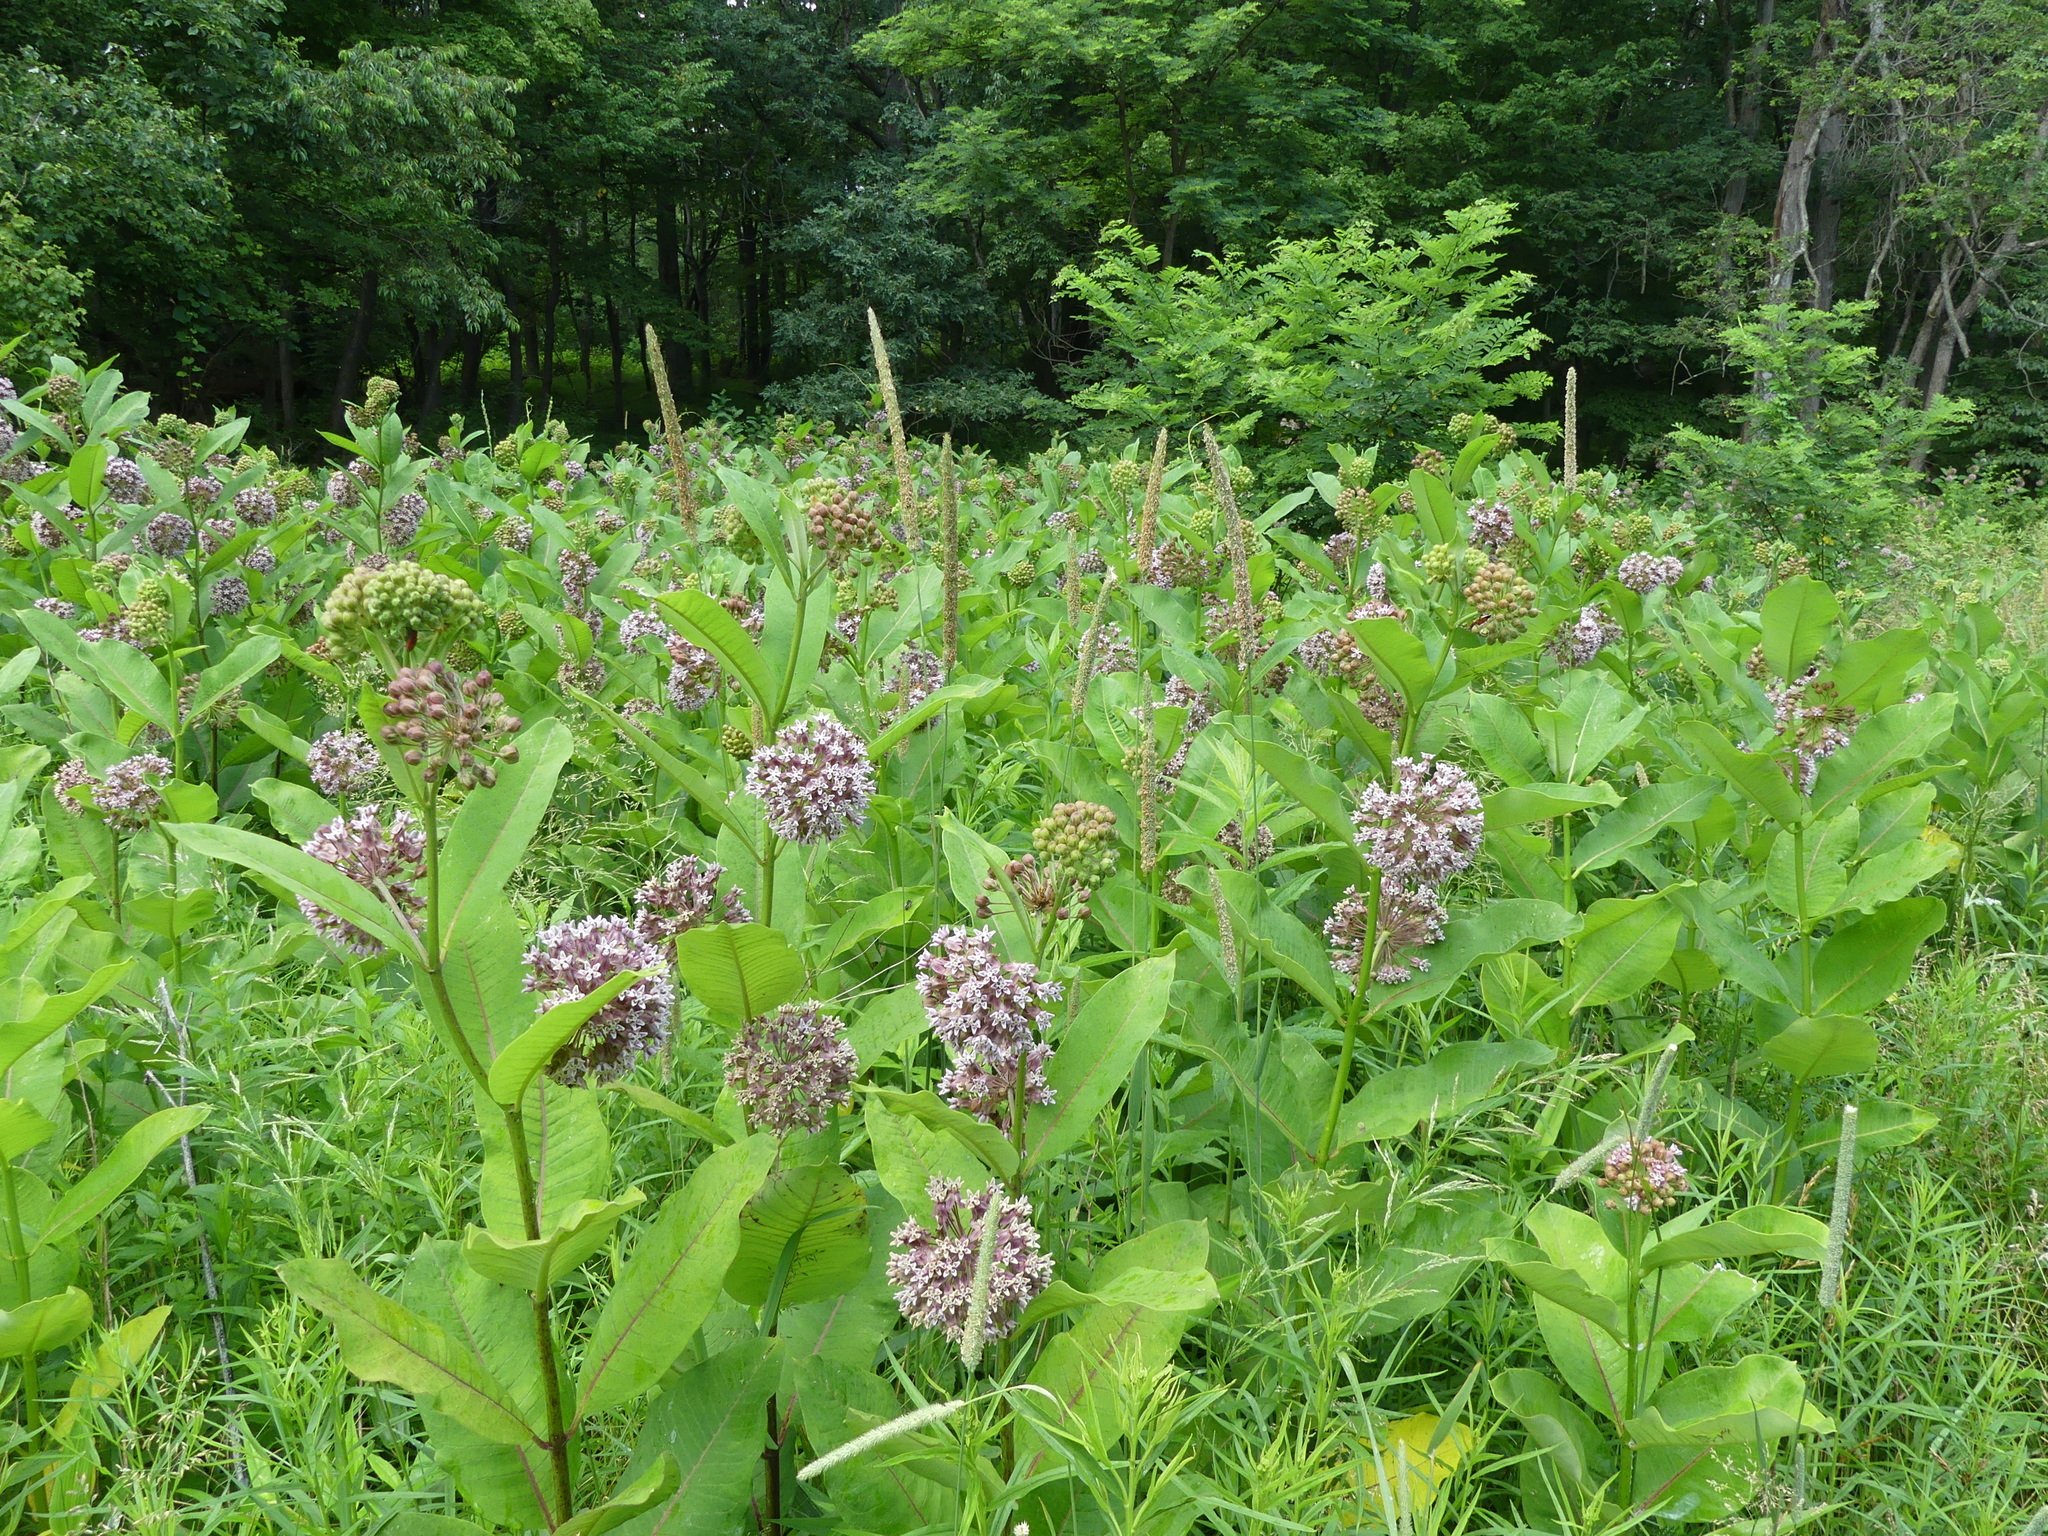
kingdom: Plantae
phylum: Tracheophyta
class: Magnoliopsida
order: Gentianales
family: Apocynaceae
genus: Asclepias
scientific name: Asclepias syriaca
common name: Common milkweed
